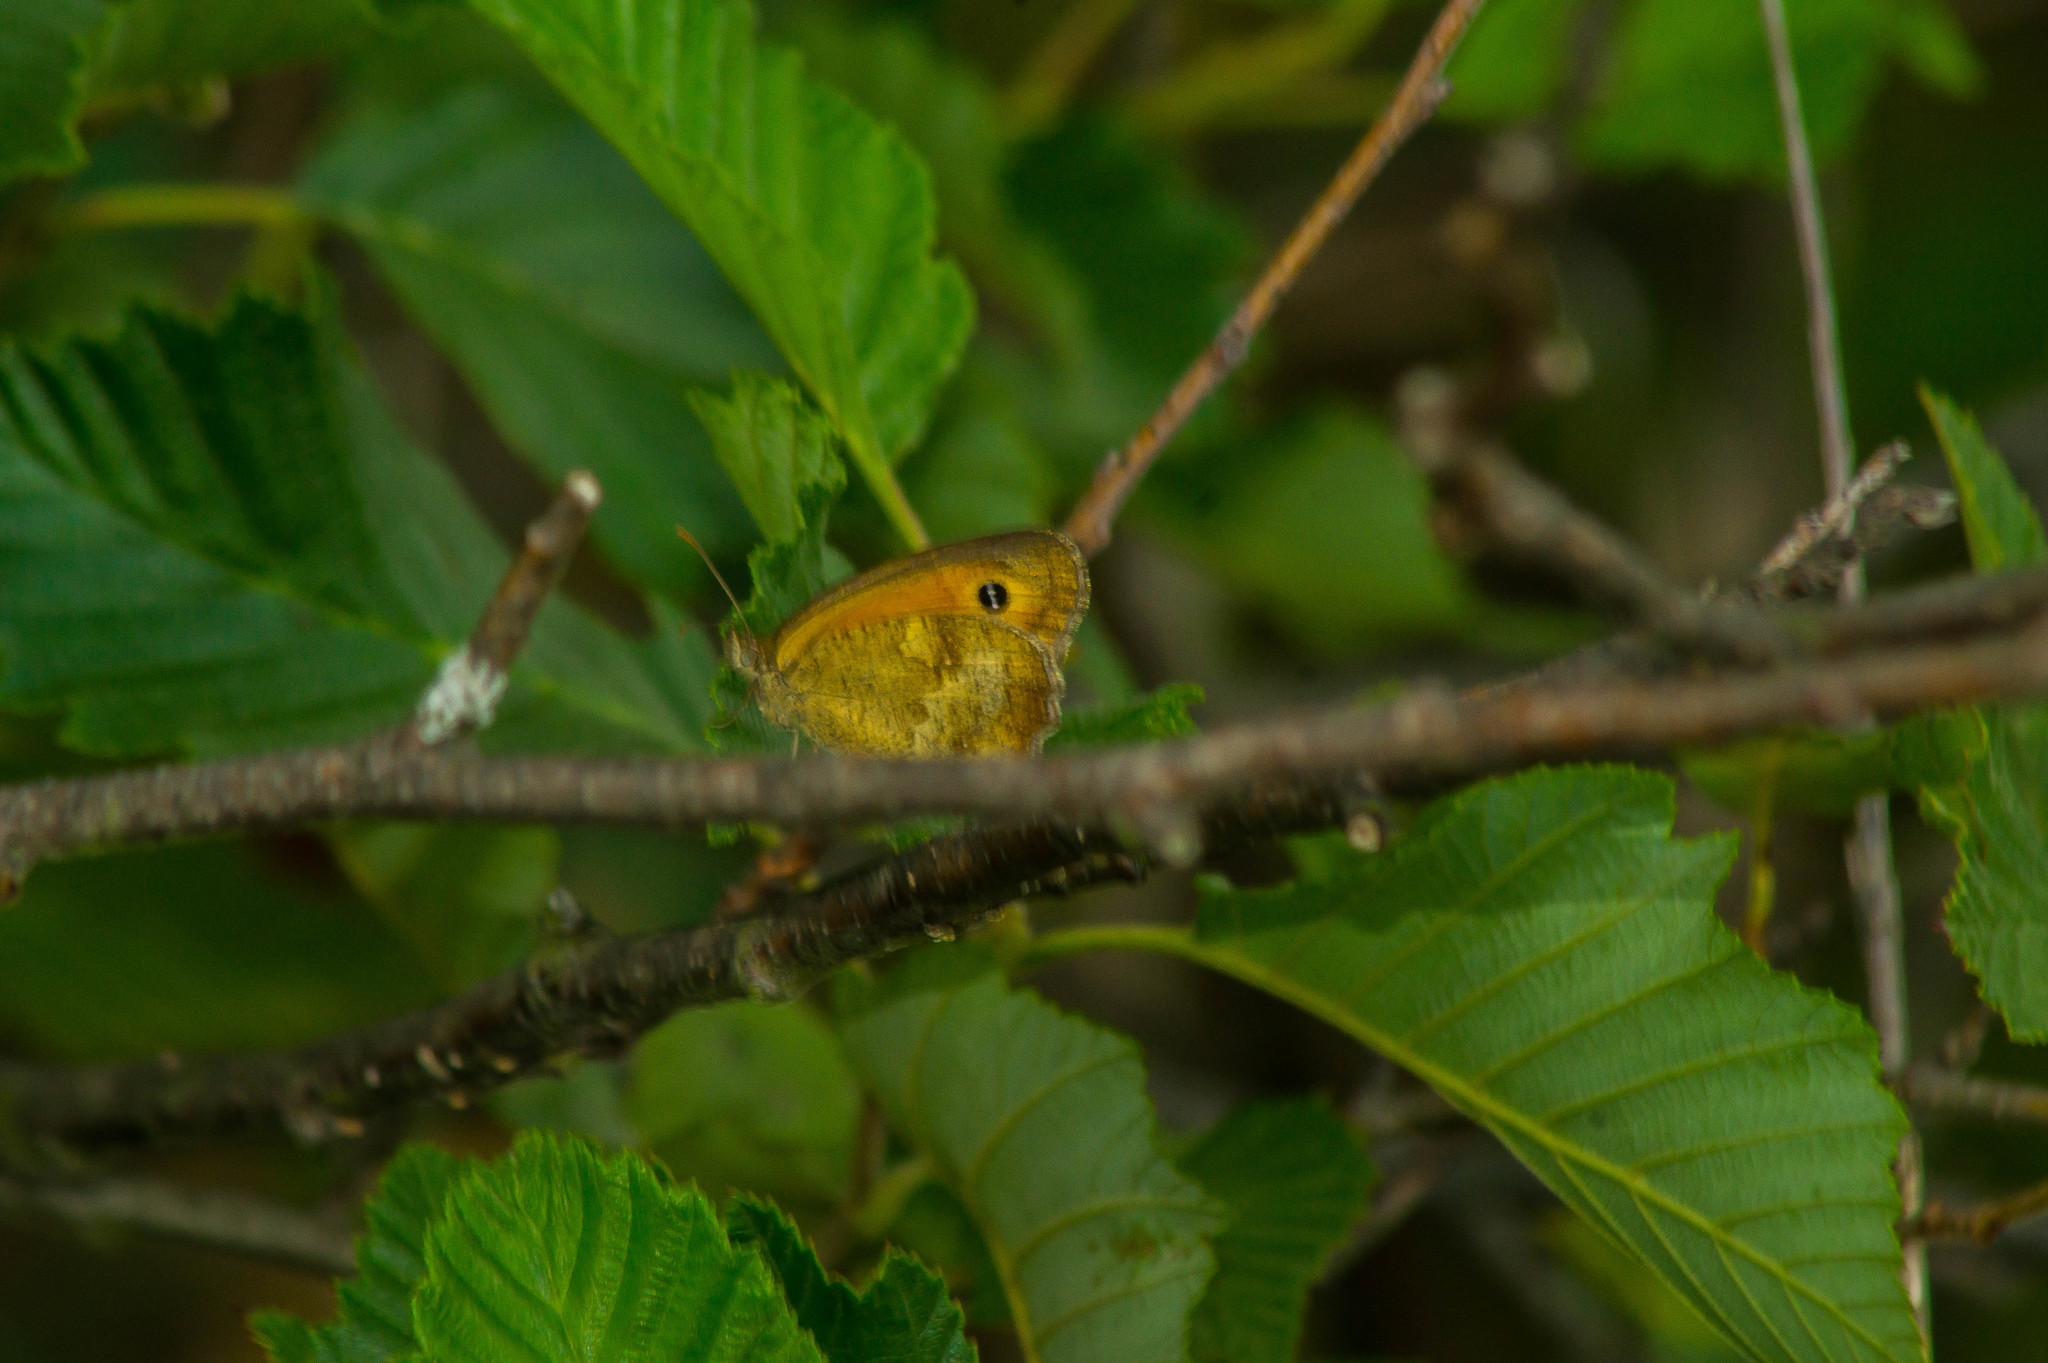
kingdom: Animalia
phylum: Arthropoda
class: Insecta
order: Lepidoptera
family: Nymphalidae
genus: Pyronia
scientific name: Pyronia tithonus
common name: Gatekeeper
